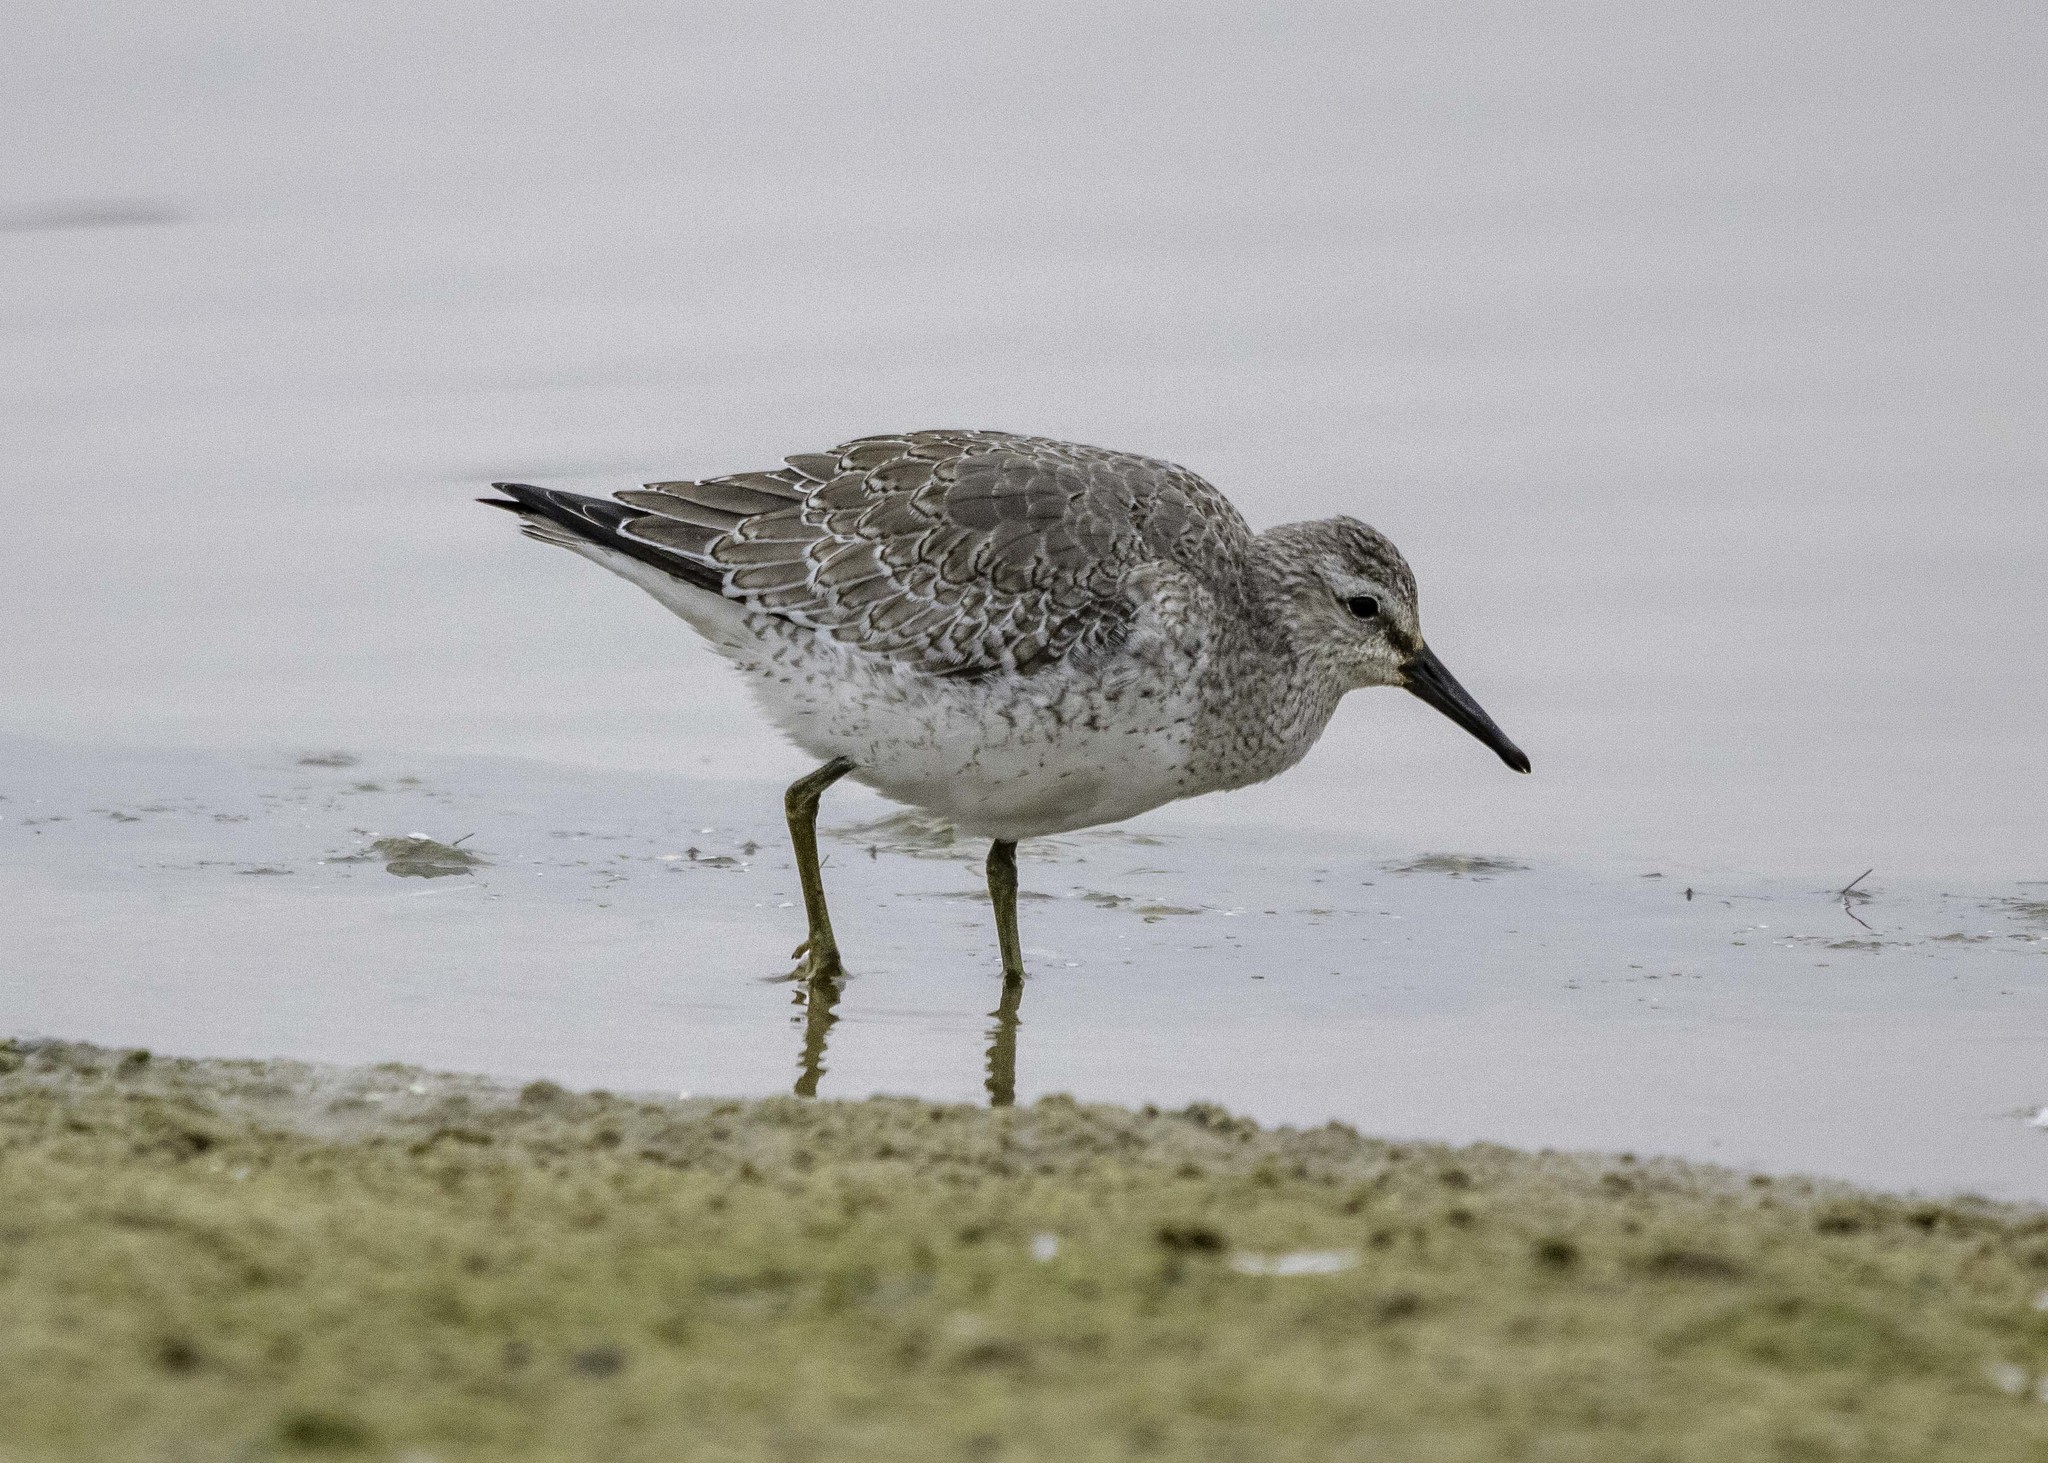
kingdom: Animalia
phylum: Chordata
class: Aves
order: Charadriiformes
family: Scolopacidae
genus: Calidris
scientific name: Calidris canutus
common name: Red knot
